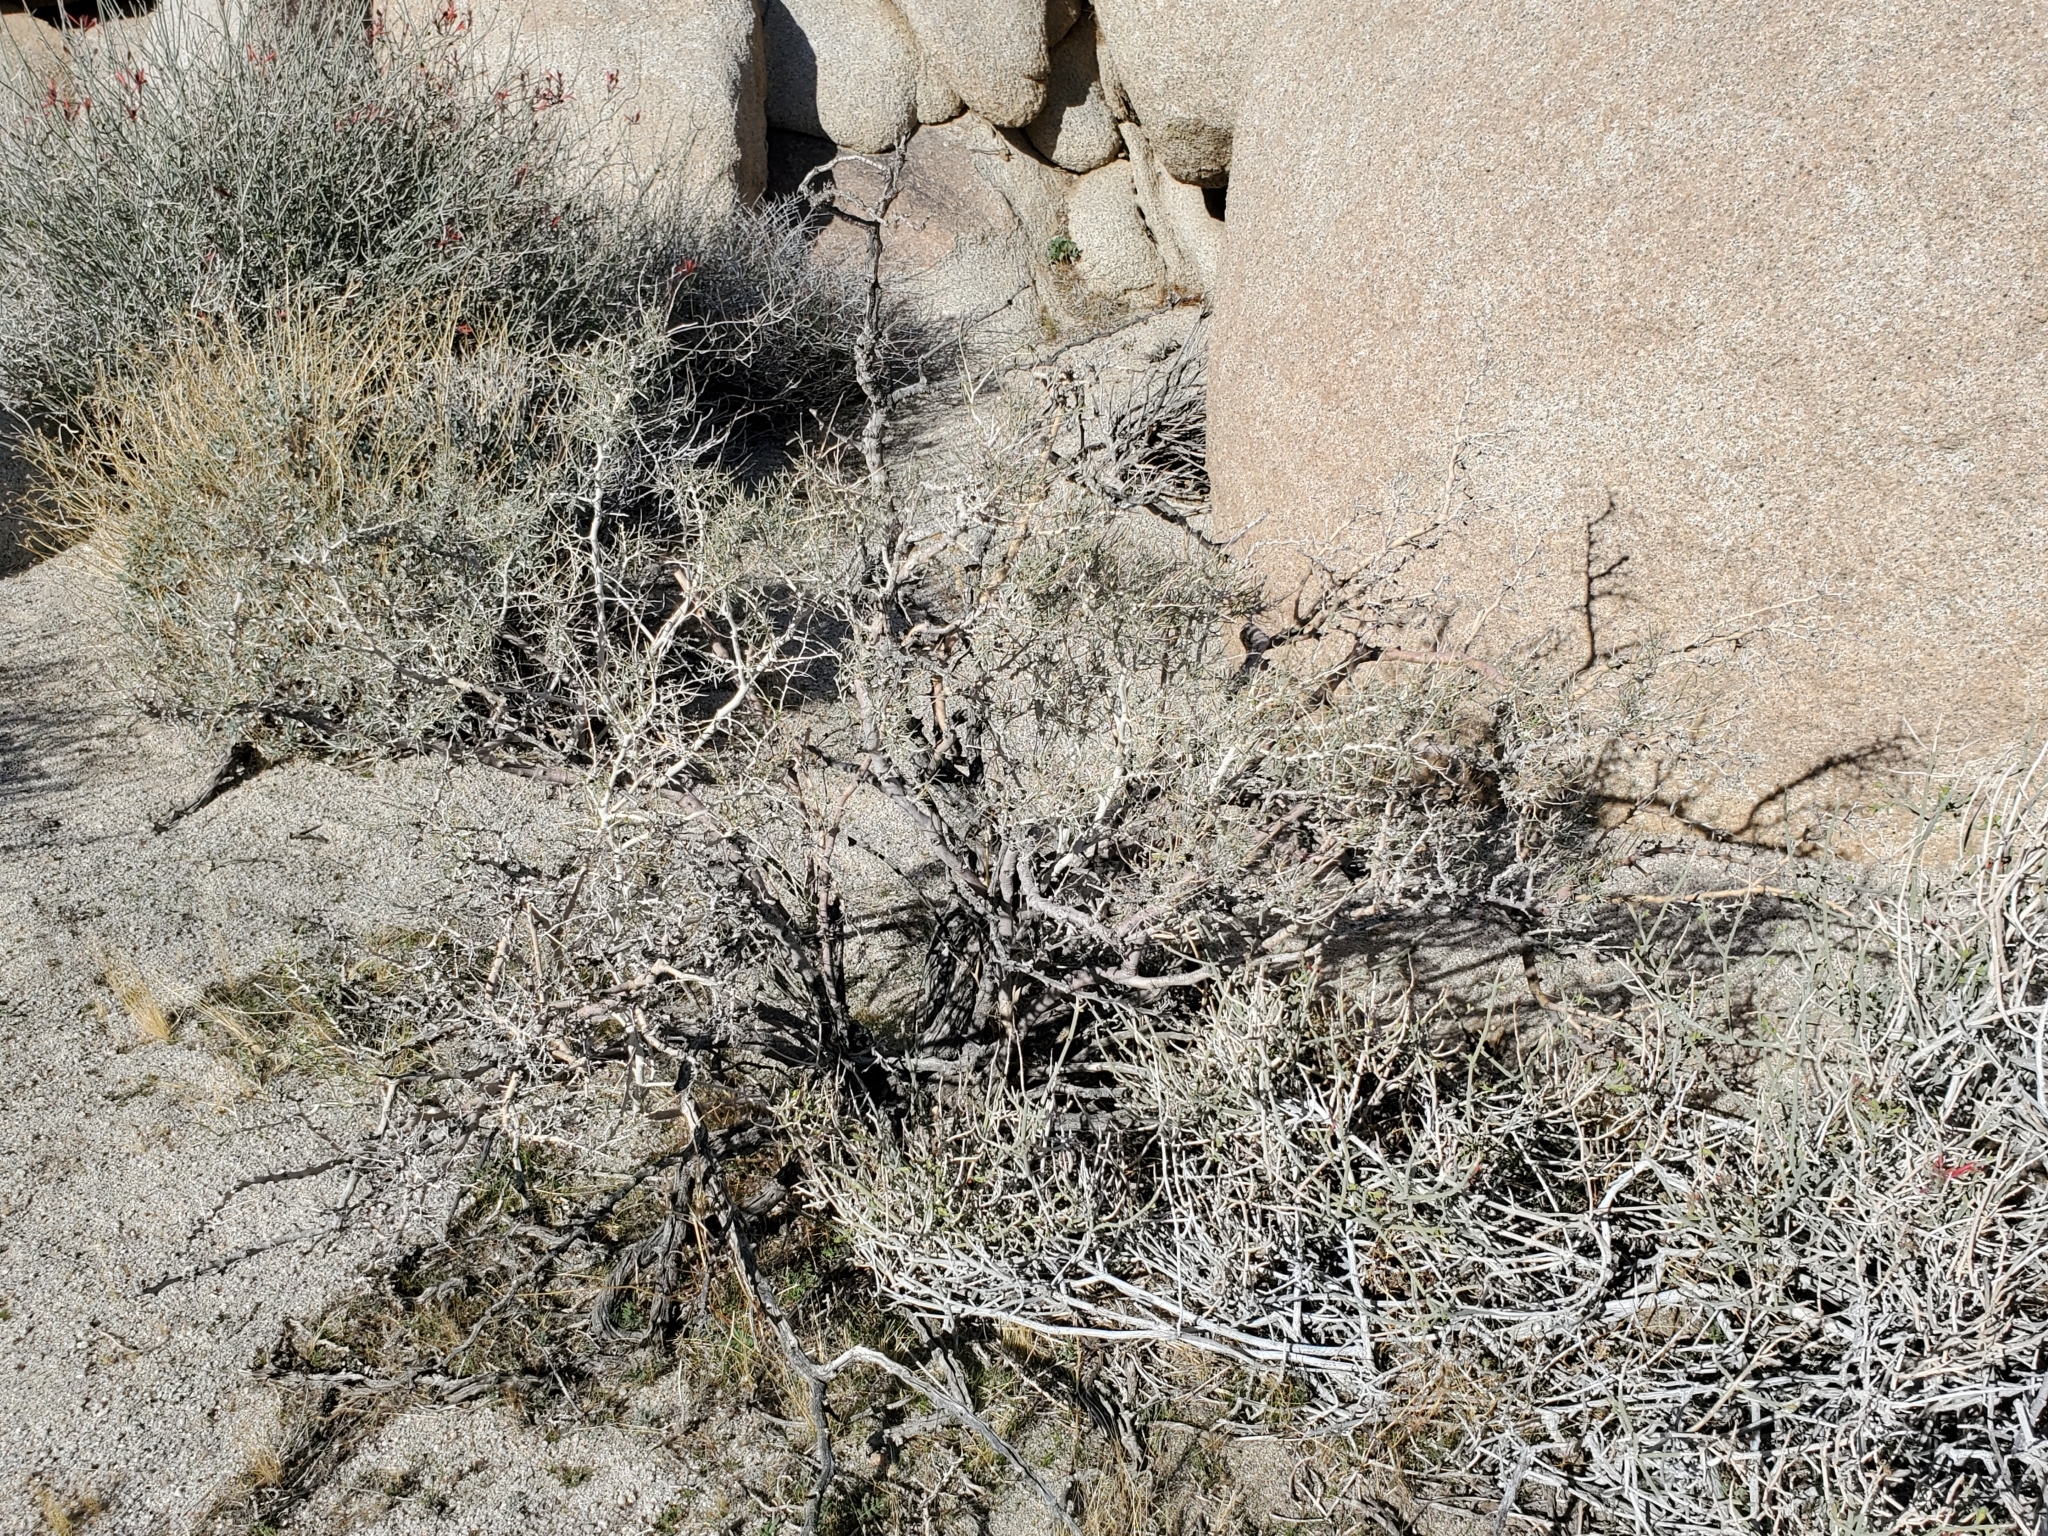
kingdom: Plantae
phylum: Tracheophyta
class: Magnoliopsida
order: Fabales
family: Fabaceae
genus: Psorothamnus
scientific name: Psorothamnus schottii
